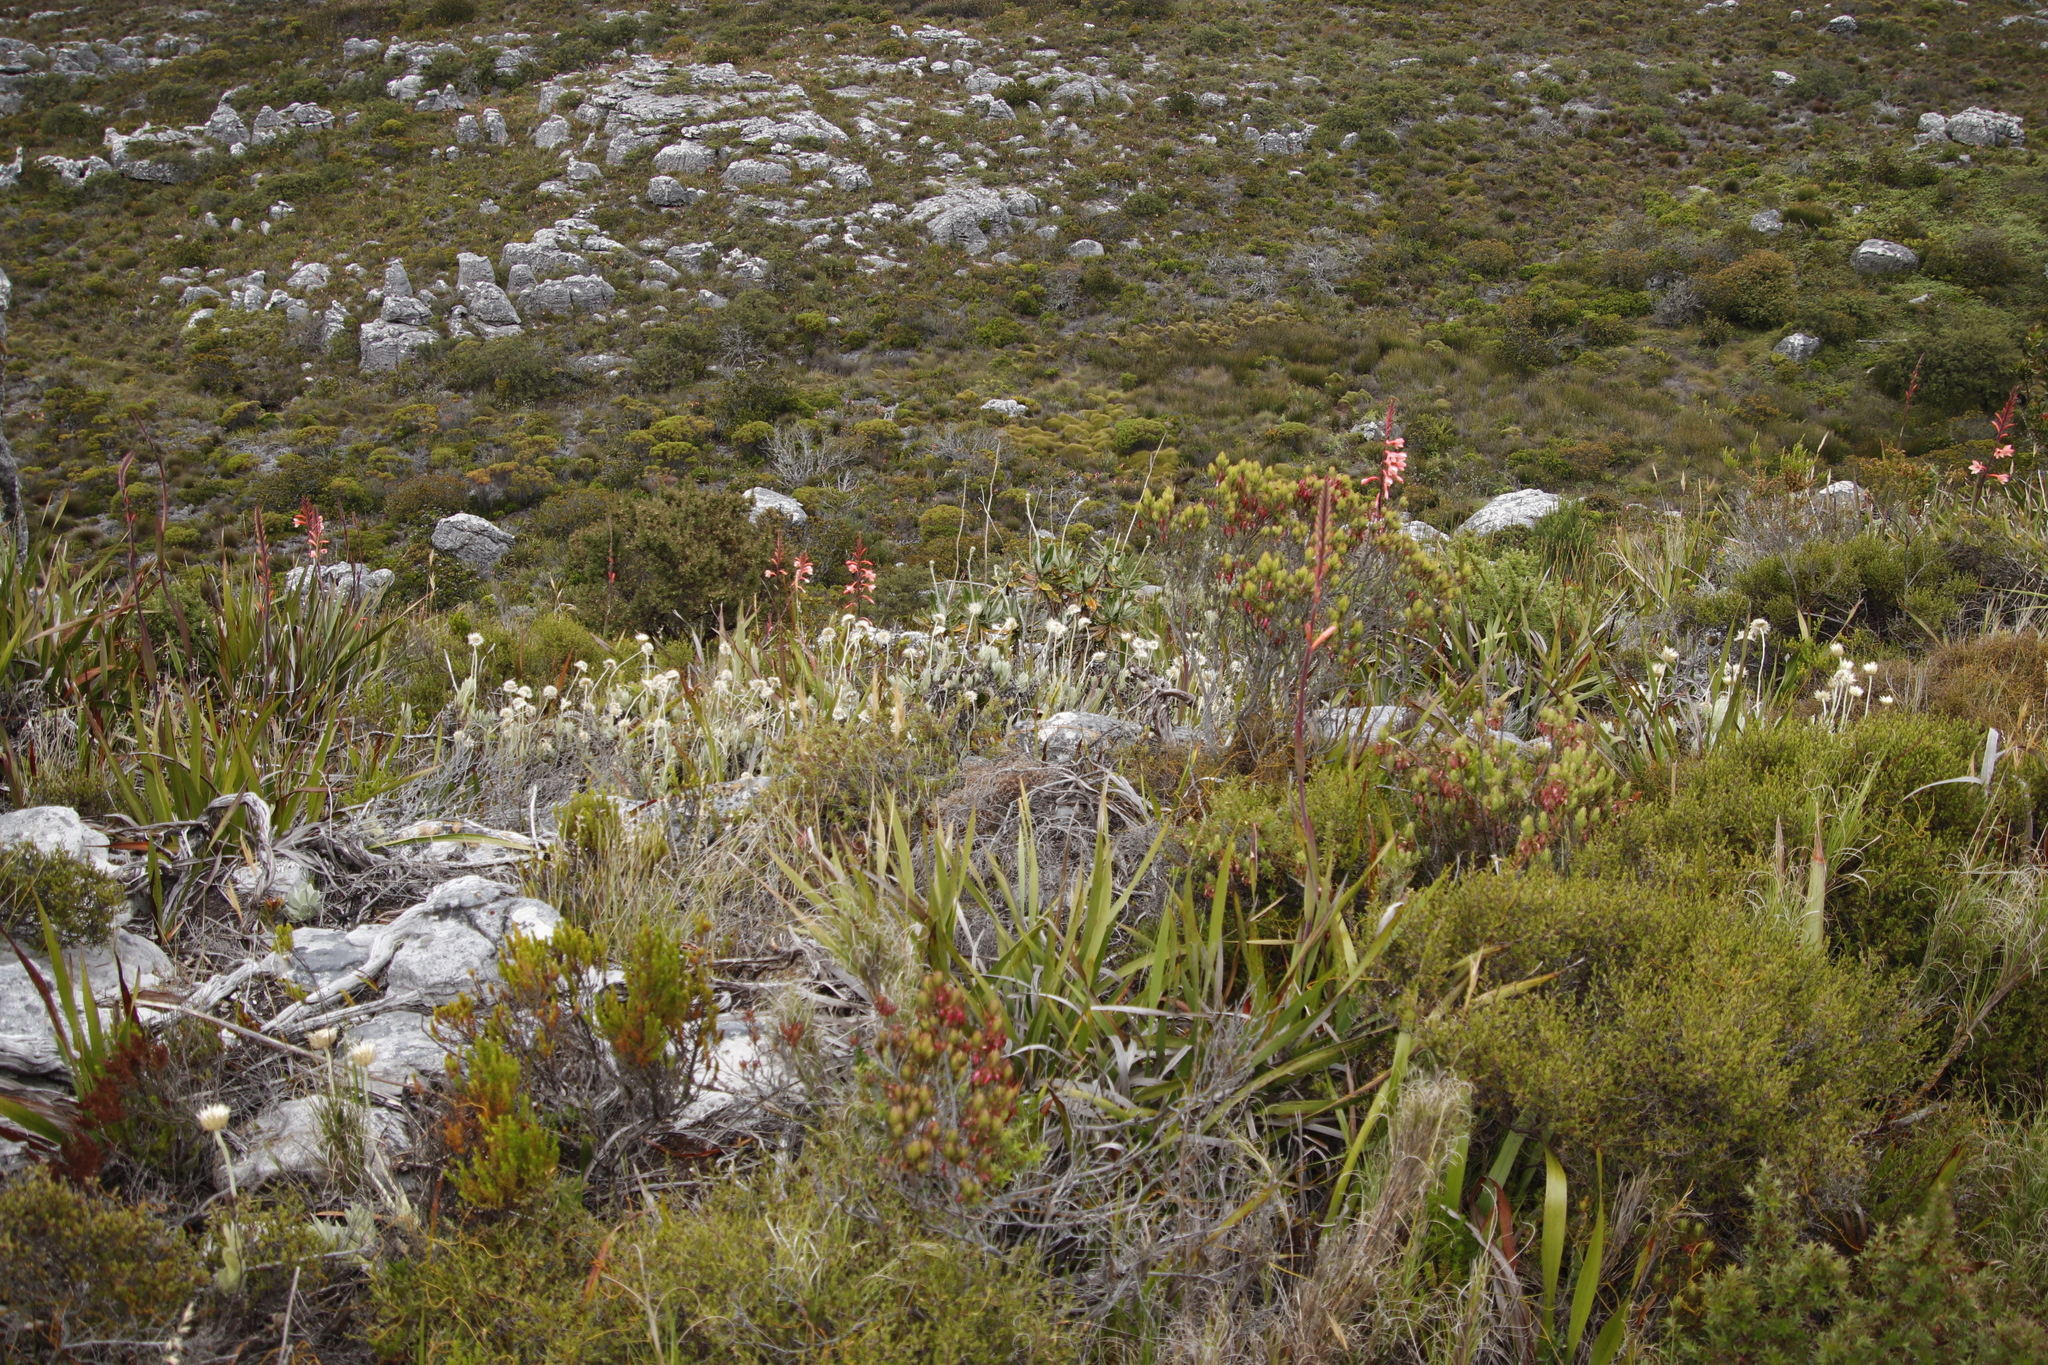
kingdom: Plantae
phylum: Tracheophyta
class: Magnoliopsida
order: Asterales
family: Asteraceae
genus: Syncarpha
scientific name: Syncarpha speciosissima
